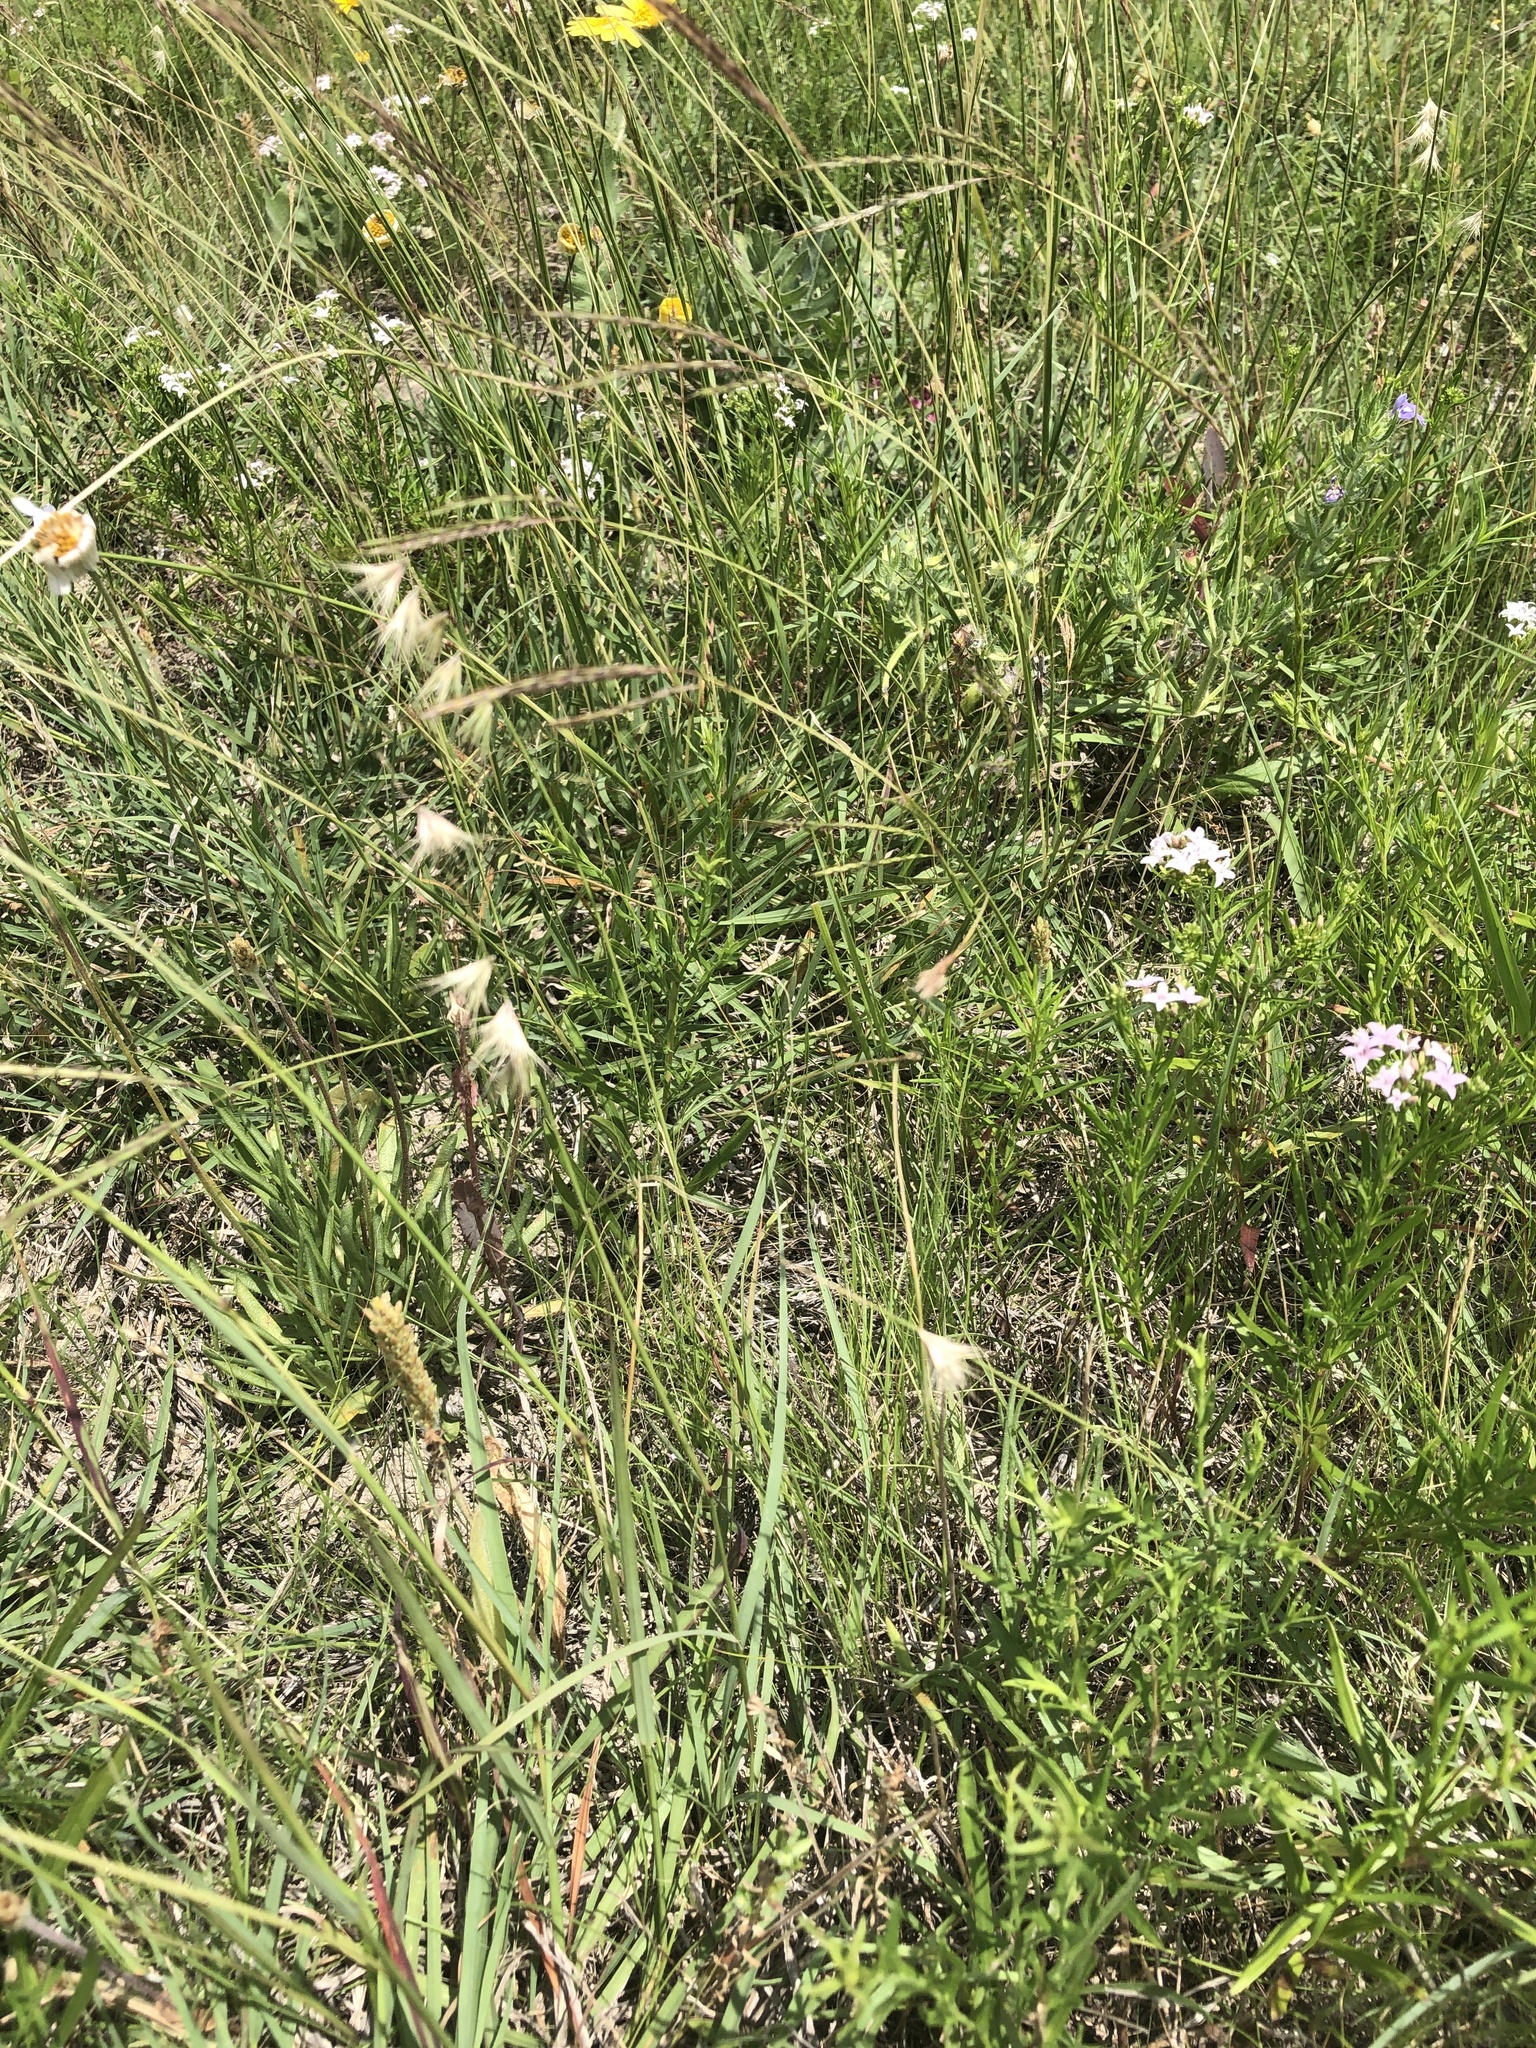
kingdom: Plantae
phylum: Tracheophyta
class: Liliopsida
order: Poales
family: Poaceae
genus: Bouteloua
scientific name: Bouteloua rigidiseta
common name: Texas grama
